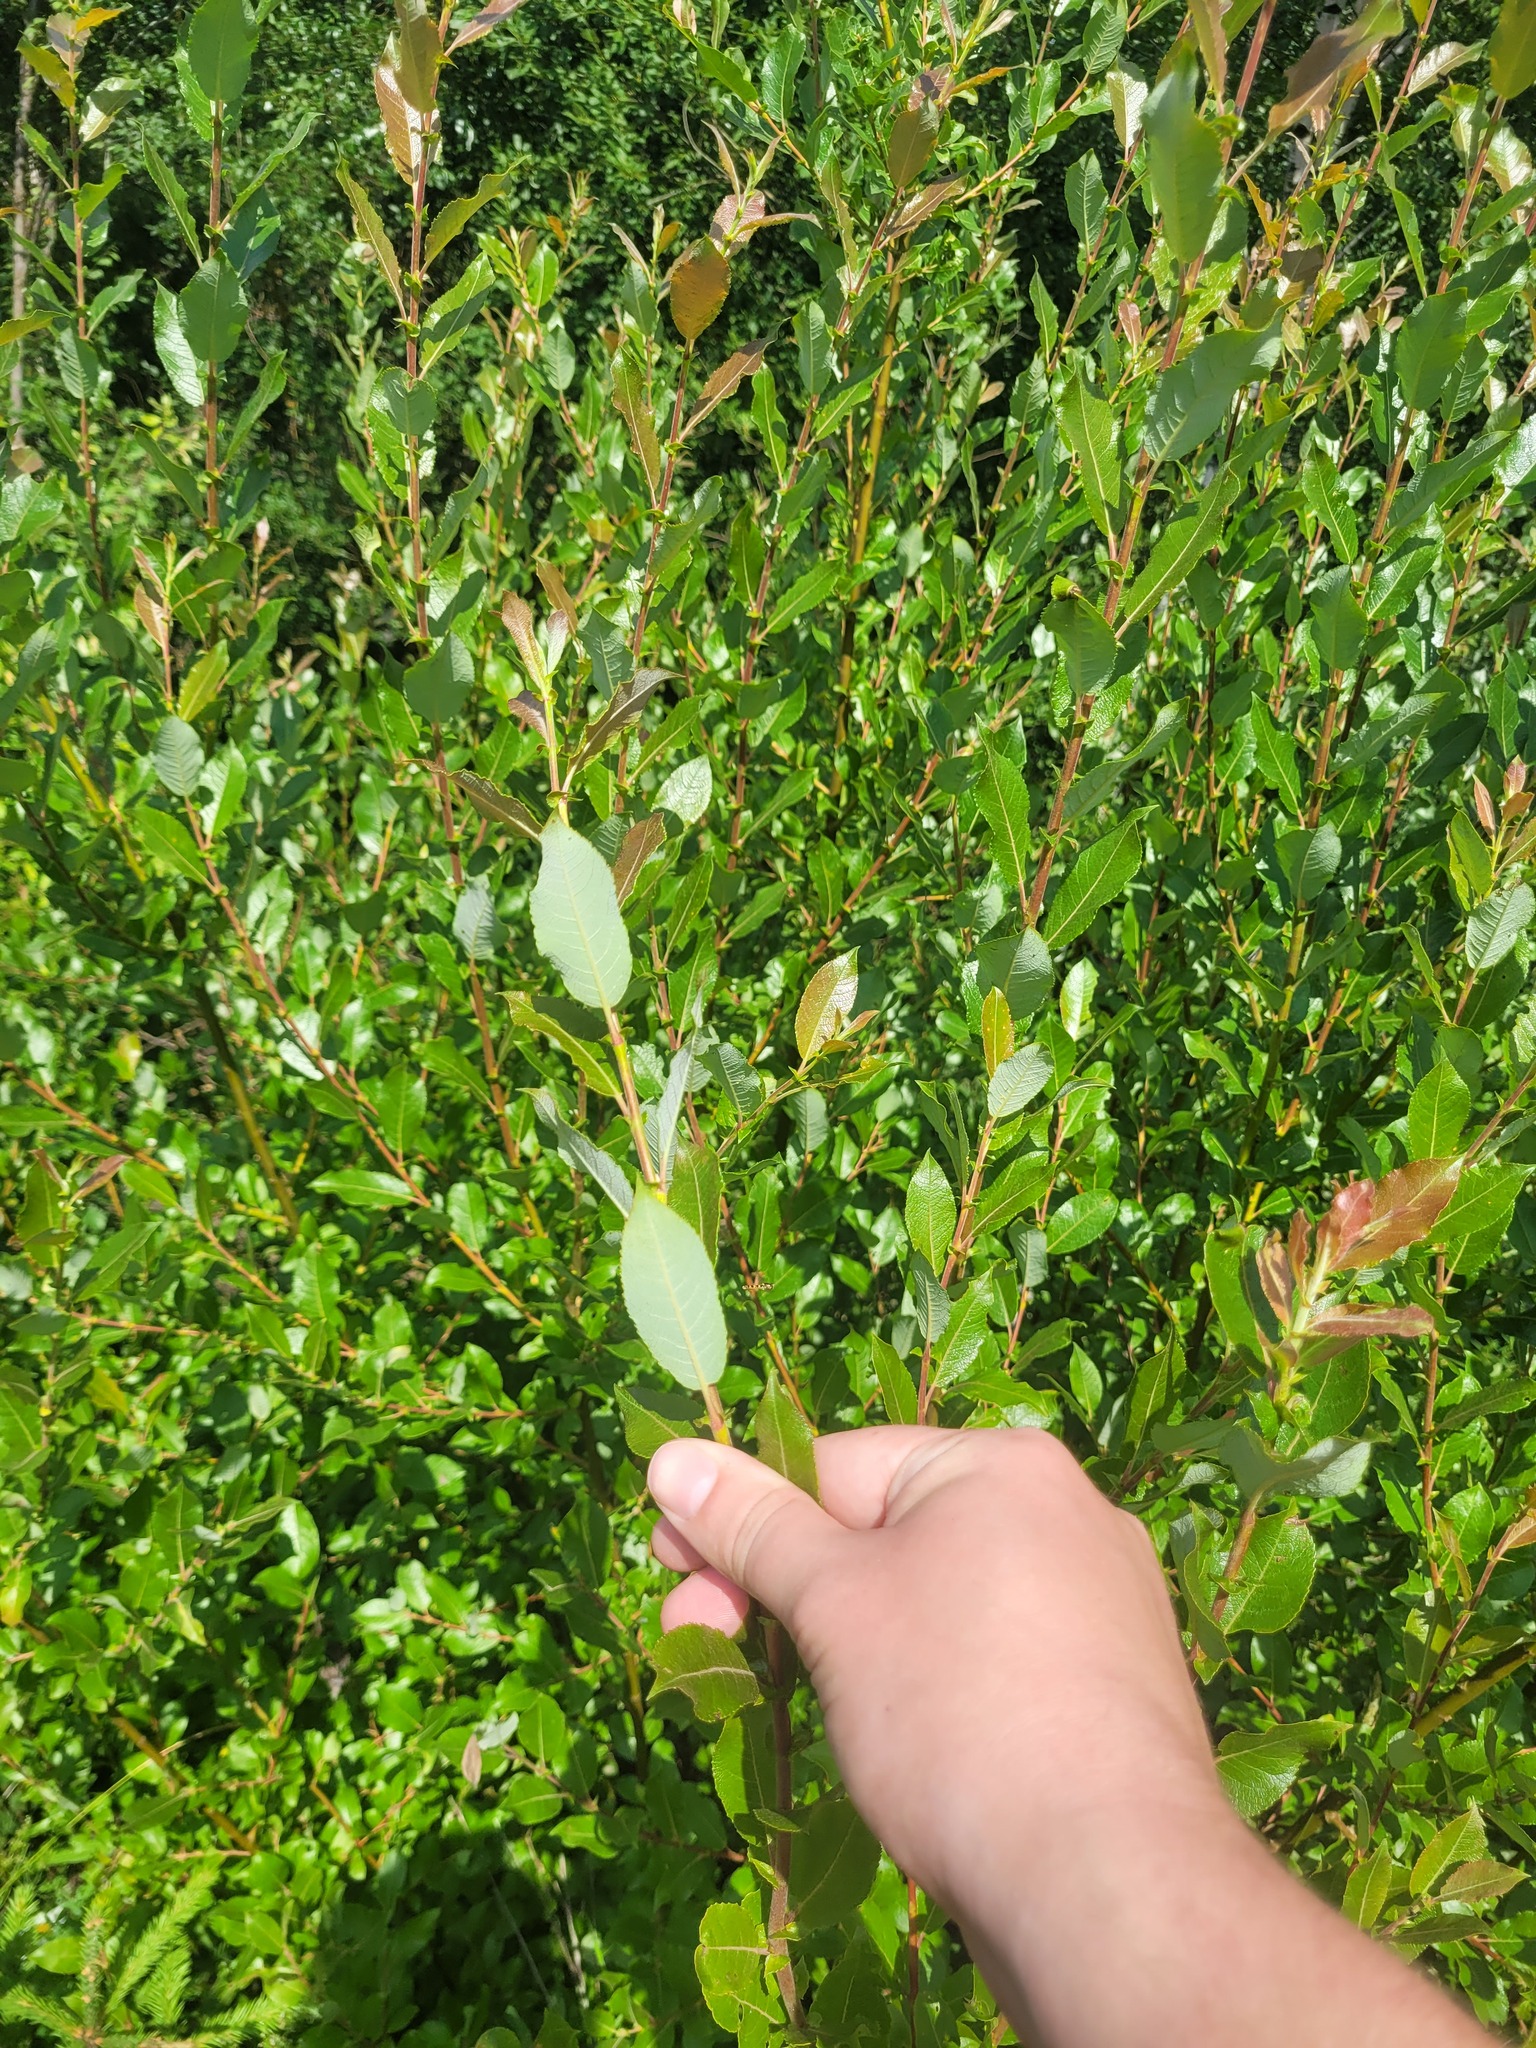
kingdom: Plantae
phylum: Tracheophyta
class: Magnoliopsida
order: Malpighiales
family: Salicaceae
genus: Salix
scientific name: Salix myrsinifolia
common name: Dark-leaved willow
